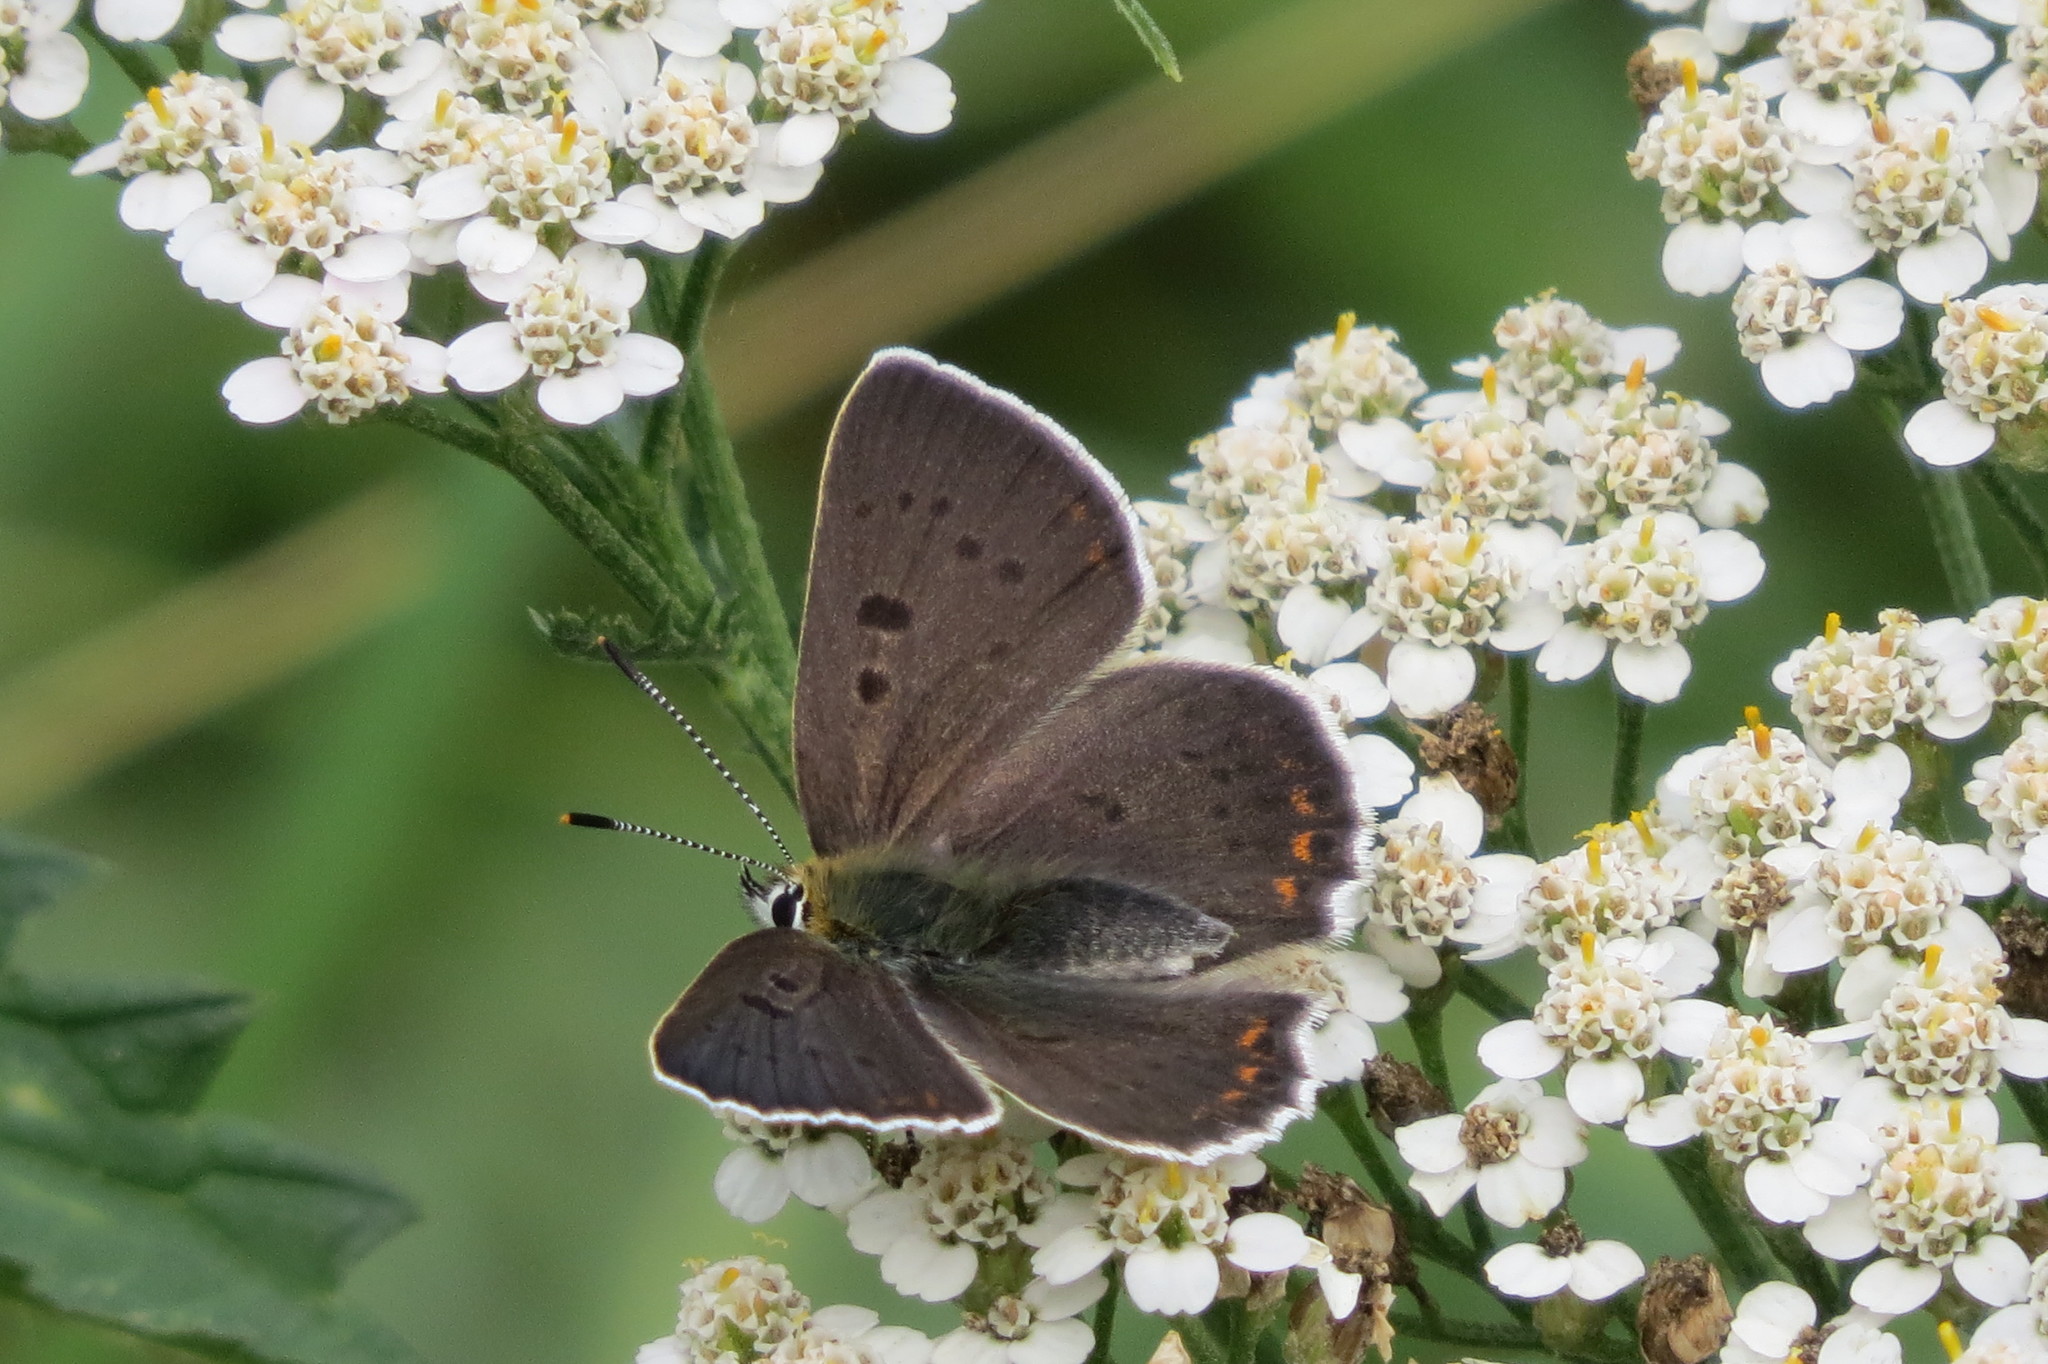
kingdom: Animalia
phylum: Arthropoda
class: Insecta
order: Lepidoptera
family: Lycaenidae
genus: Loweia
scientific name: Loweia tityrus
